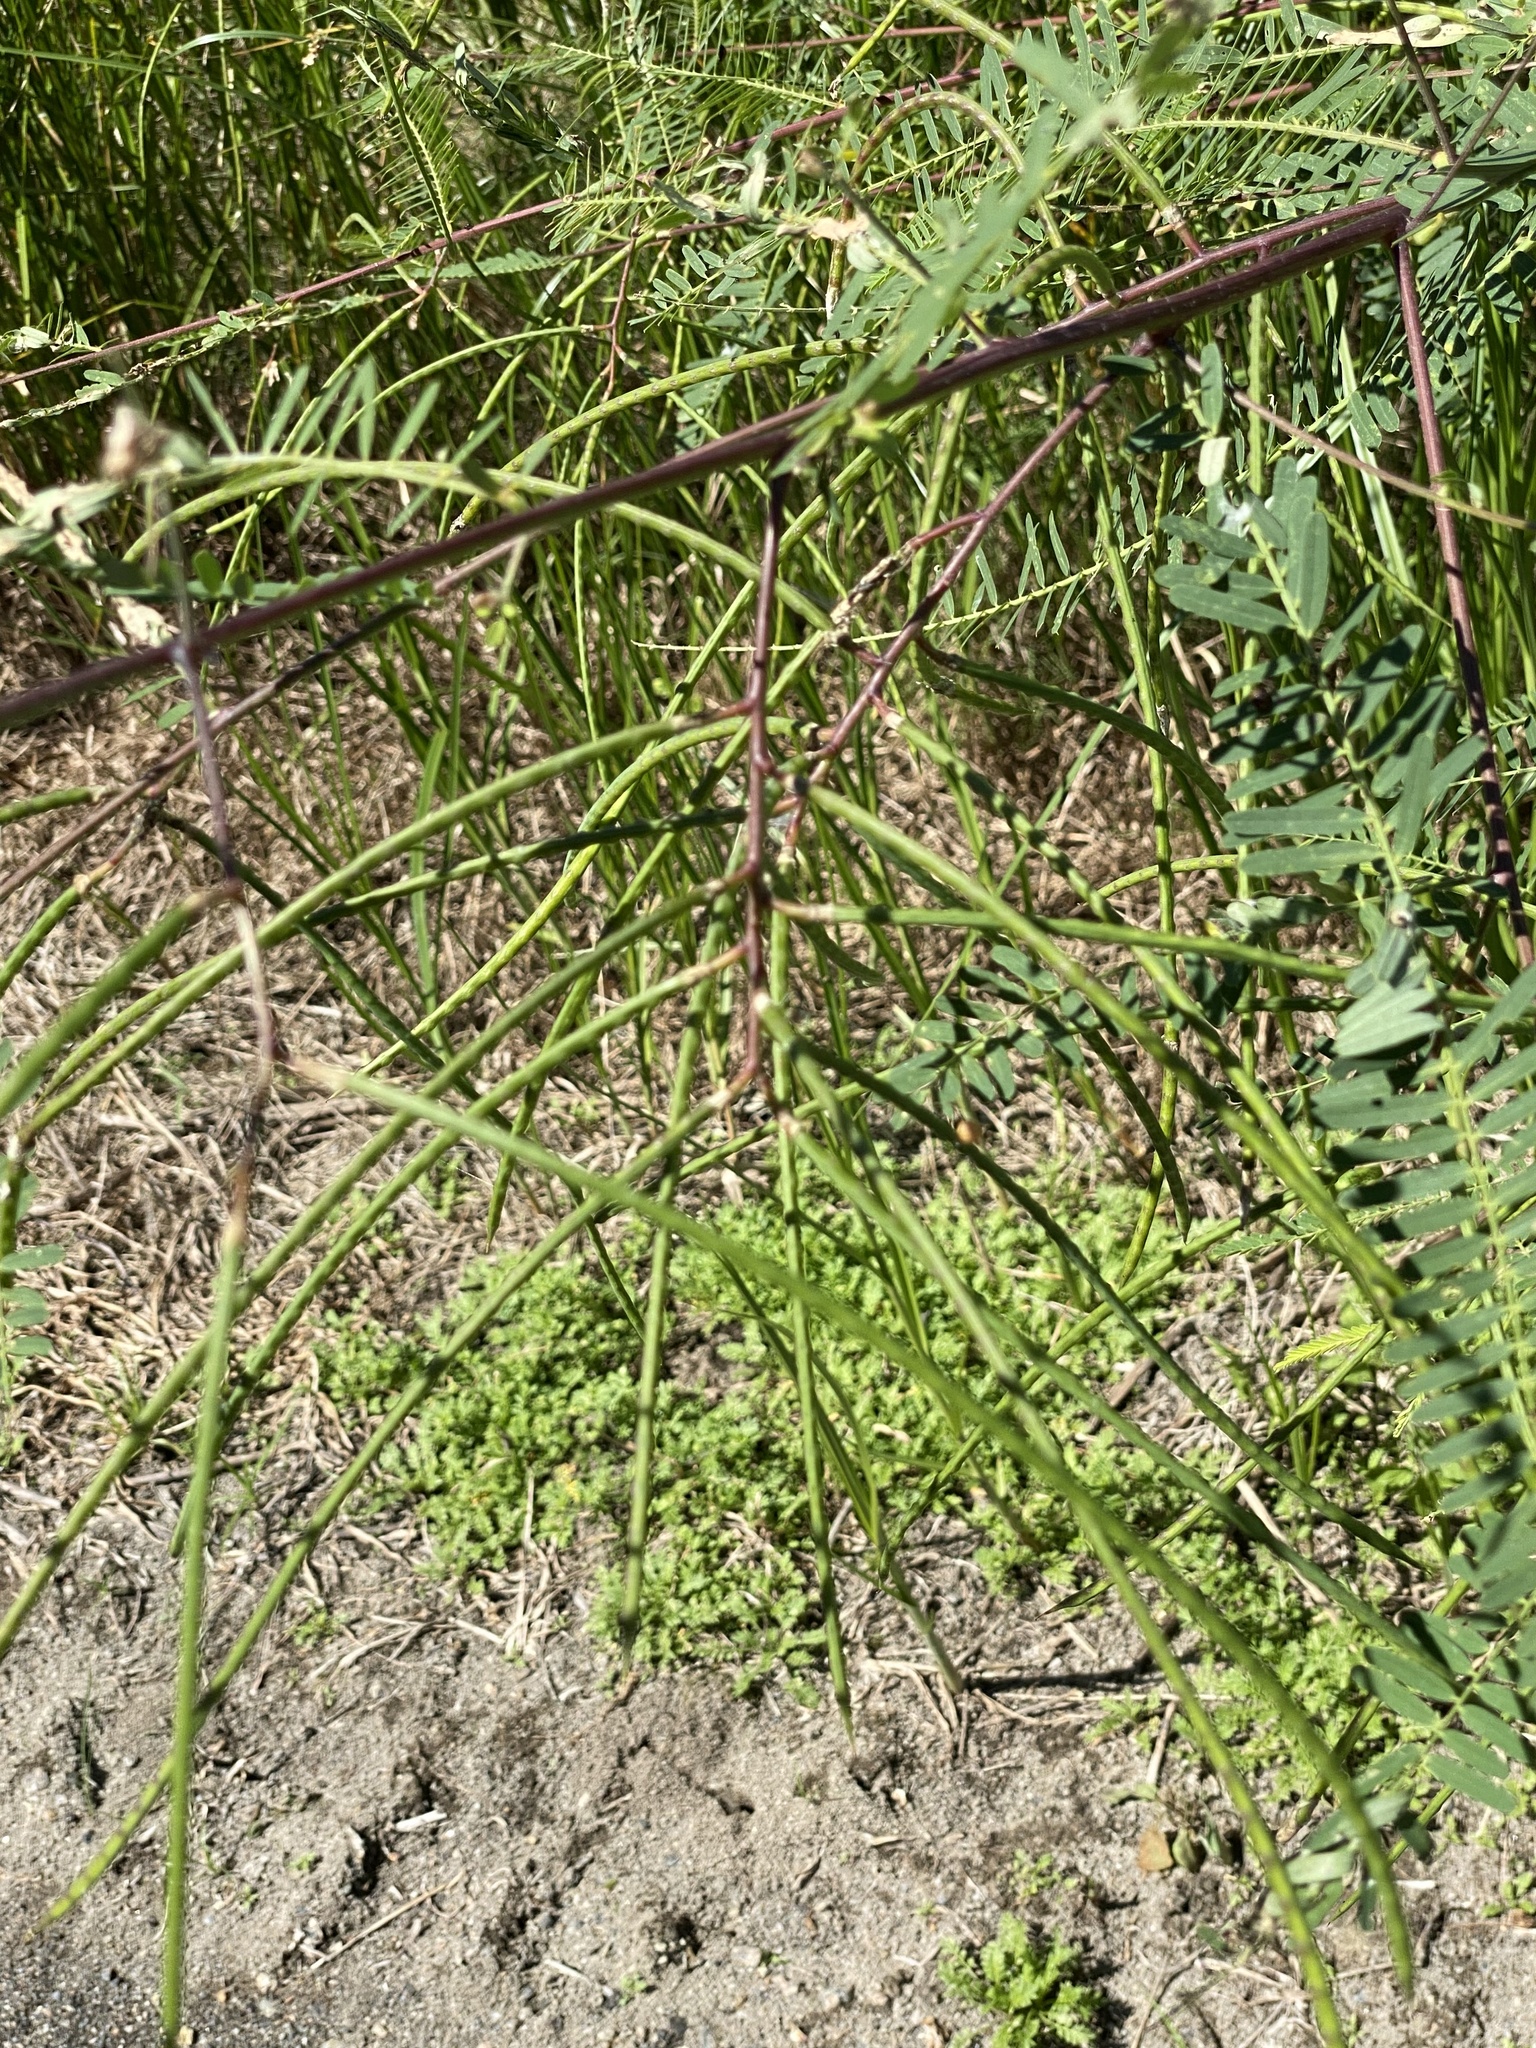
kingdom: Plantae
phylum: Tracheophyta
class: Magnoliopsida
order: Fabales
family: Fabaceae
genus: Sesbania
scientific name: Sesbania cannabina
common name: Canicha
